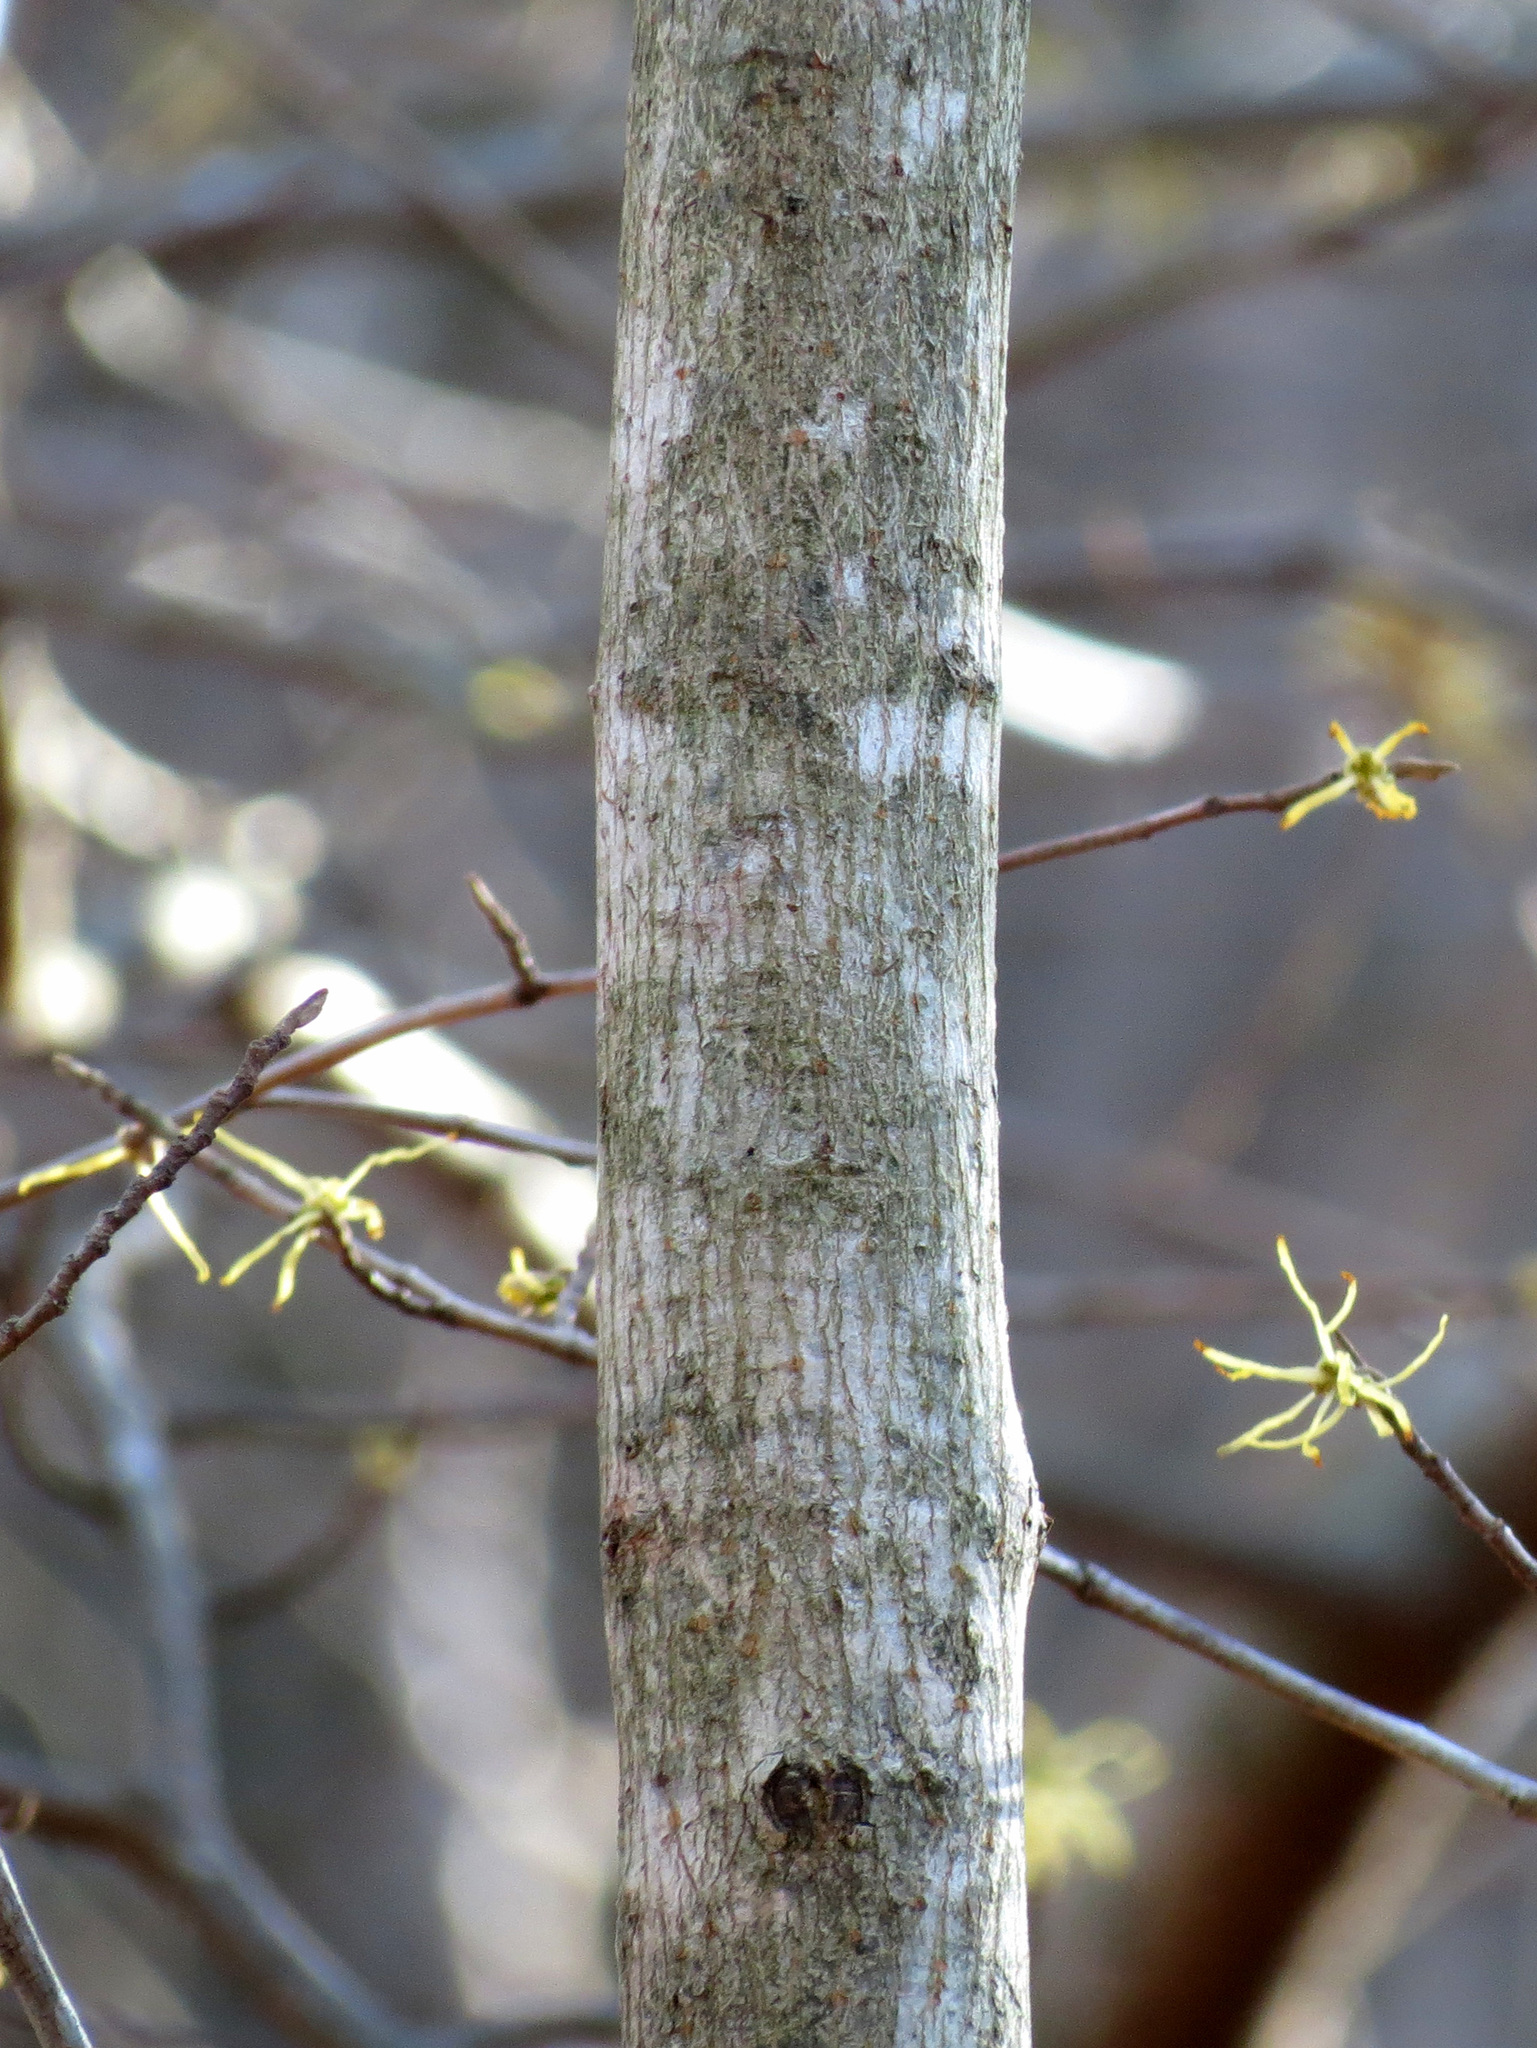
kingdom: Plantae
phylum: Tracheophyta
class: Magnoliopsida
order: Sapindales
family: Sapindaceae
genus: Acer
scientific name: Acer platanoides
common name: Norway maple
